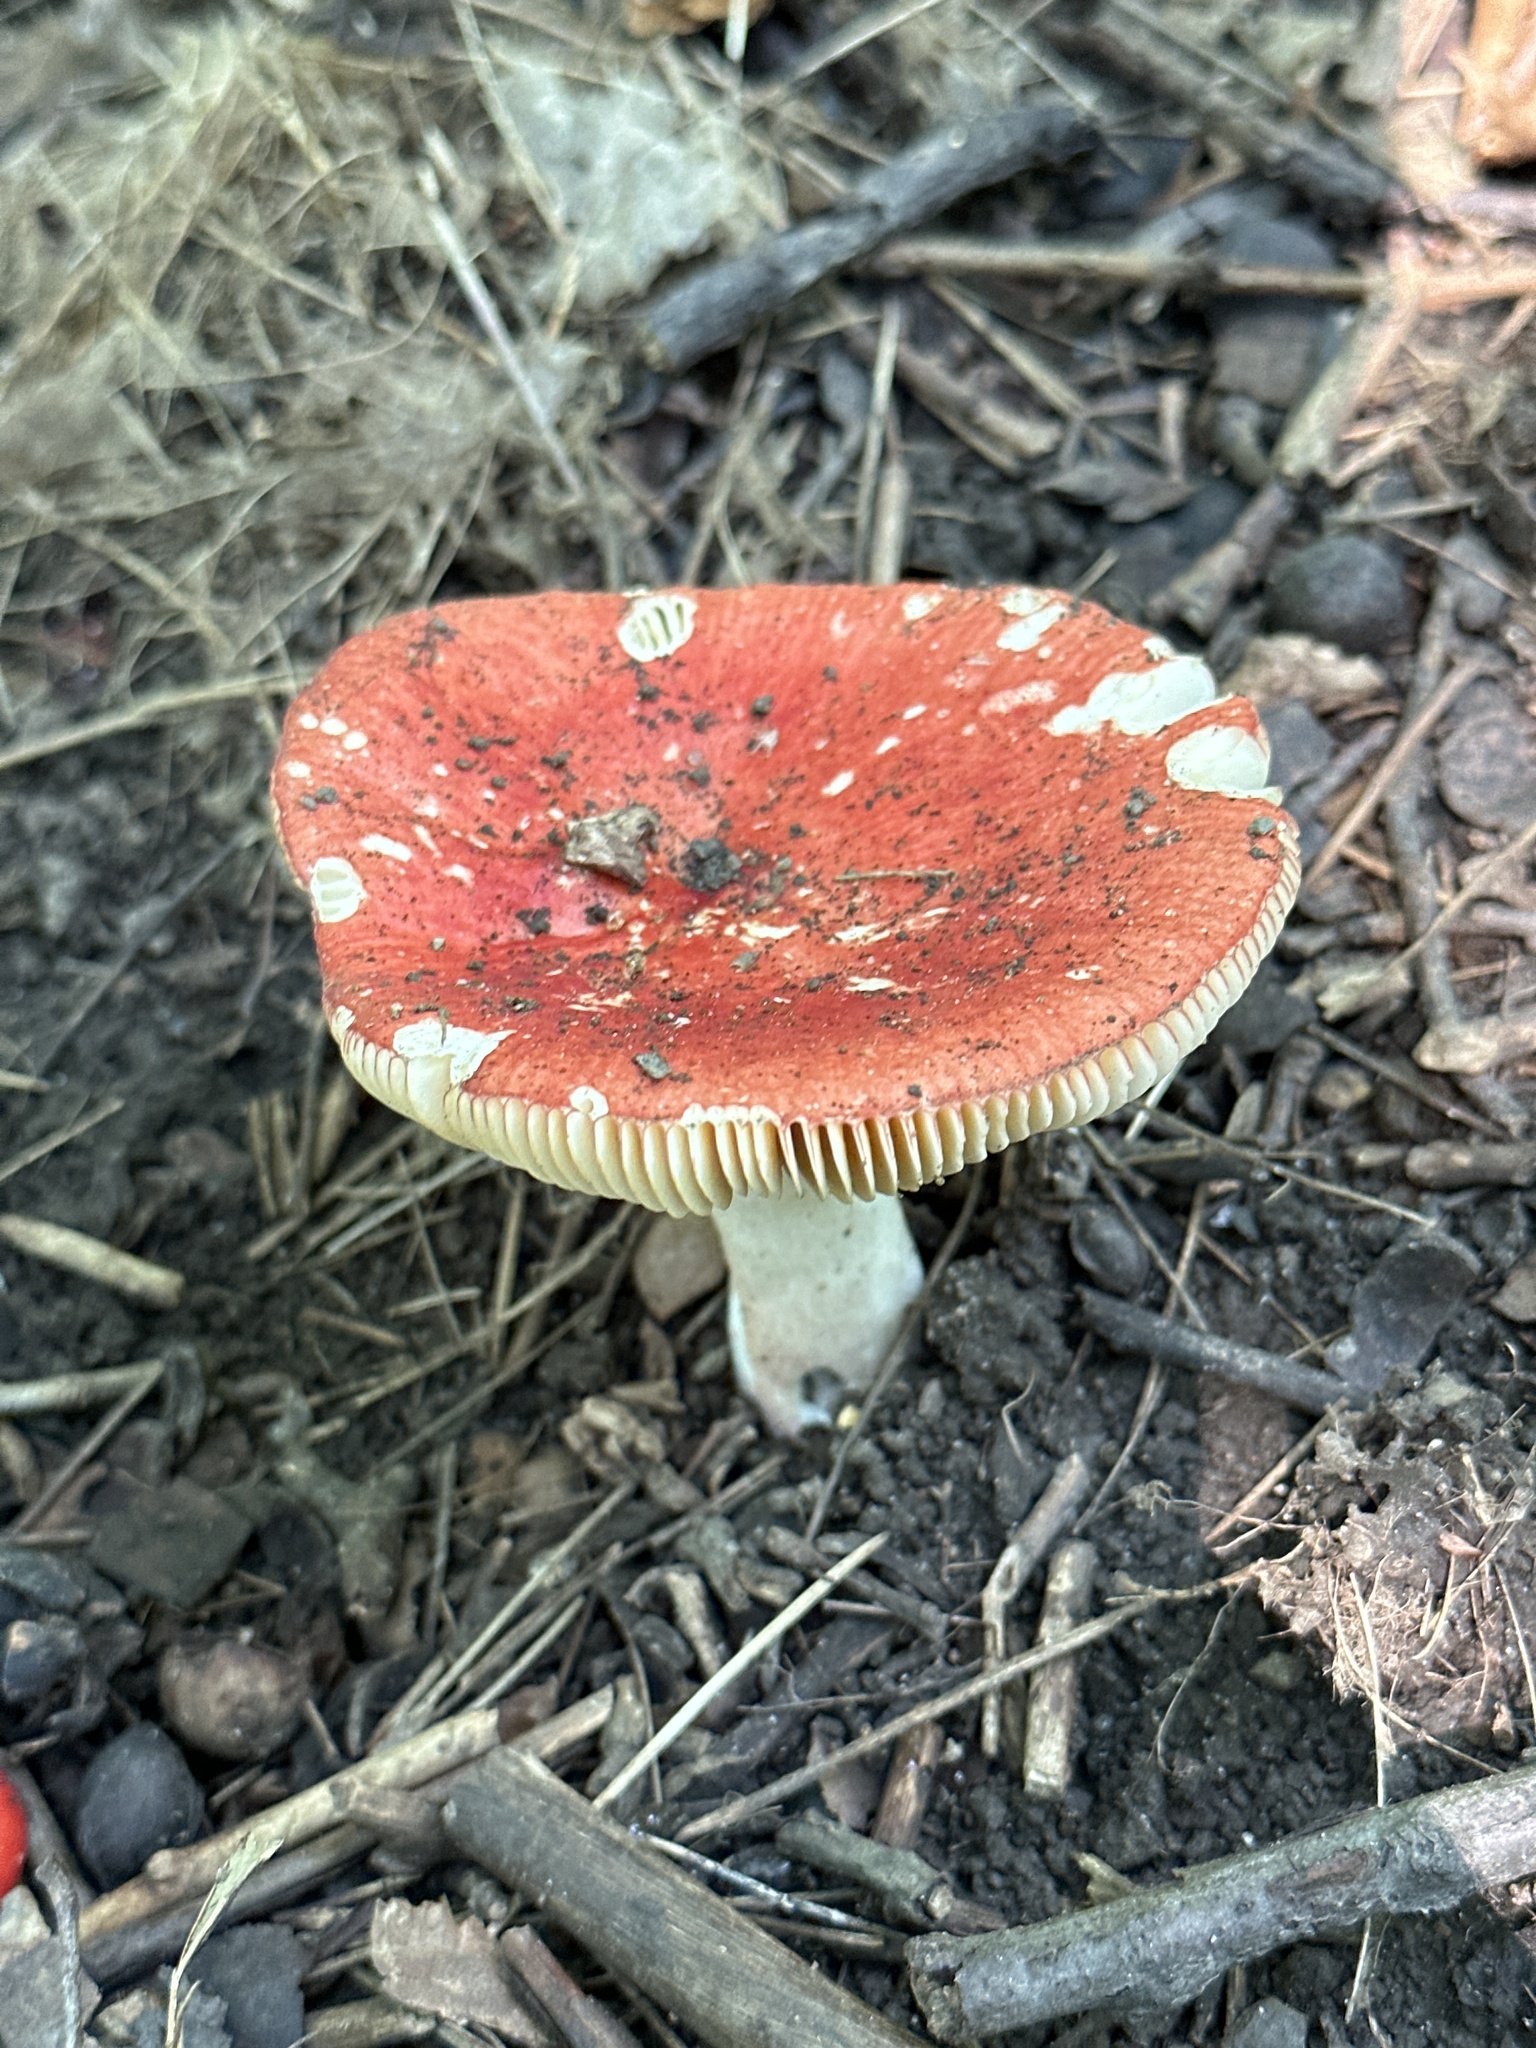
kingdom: Fungi
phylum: Basidiomycota
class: Agaricomycetes
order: Russulales
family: Russulaceae
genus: Russula
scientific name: Russula
